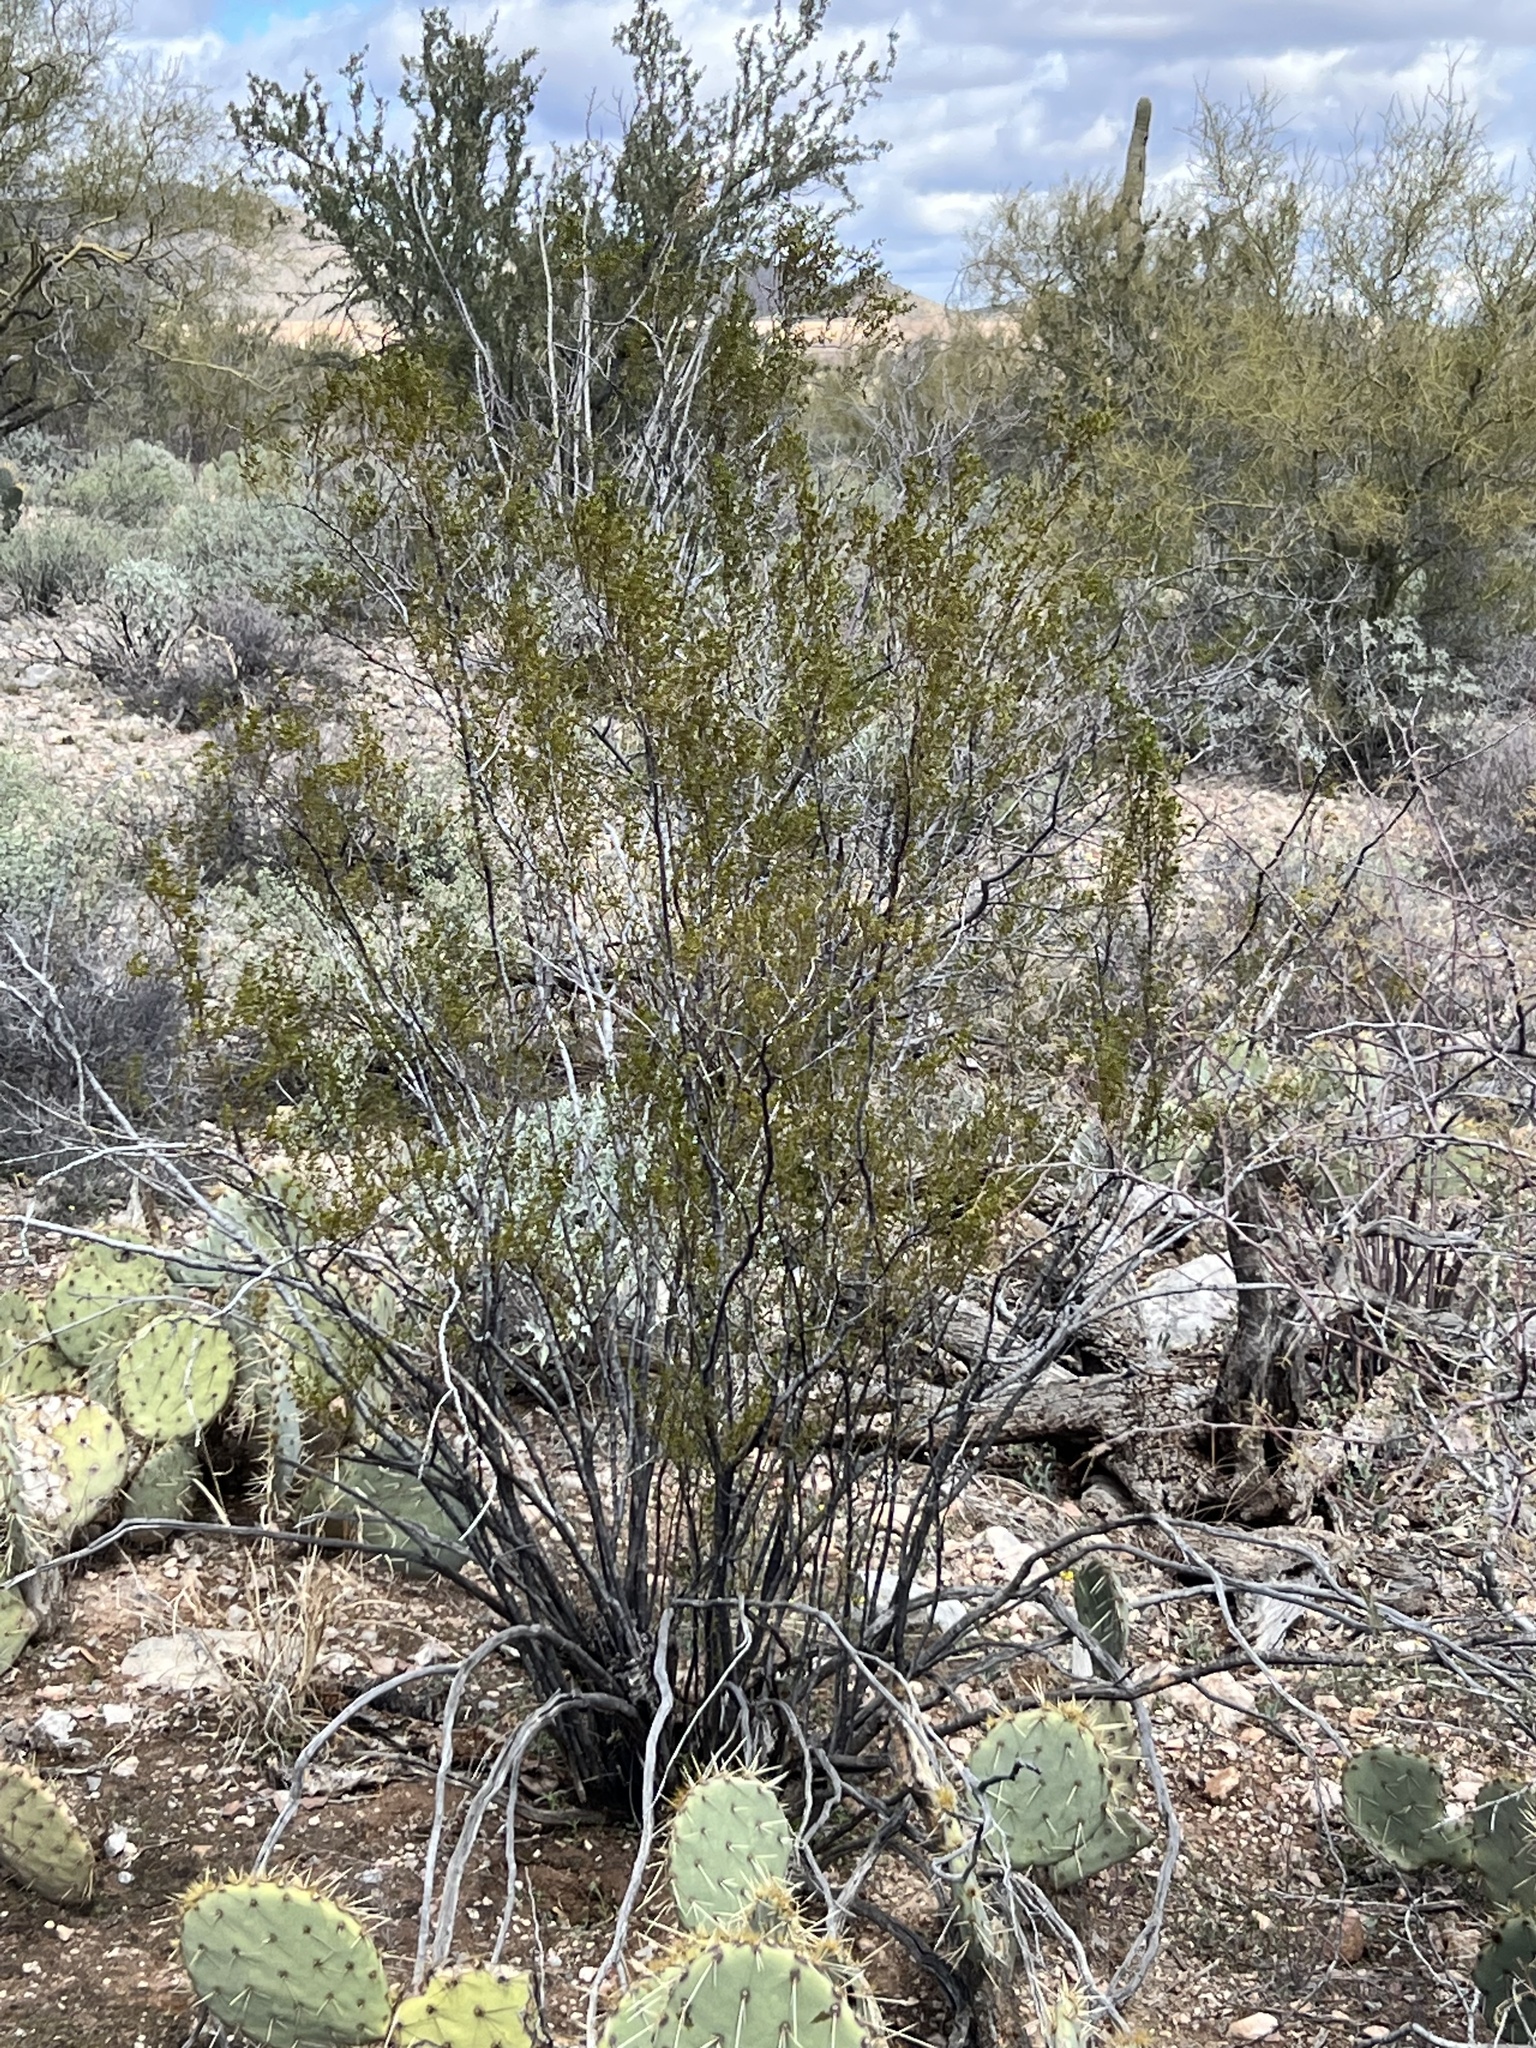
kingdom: Plantae
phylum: Tracheophyta
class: Magnoliopsida
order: Zygophyllales
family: Zygophyllaceae
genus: Larrea
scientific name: Larrea tridentata
